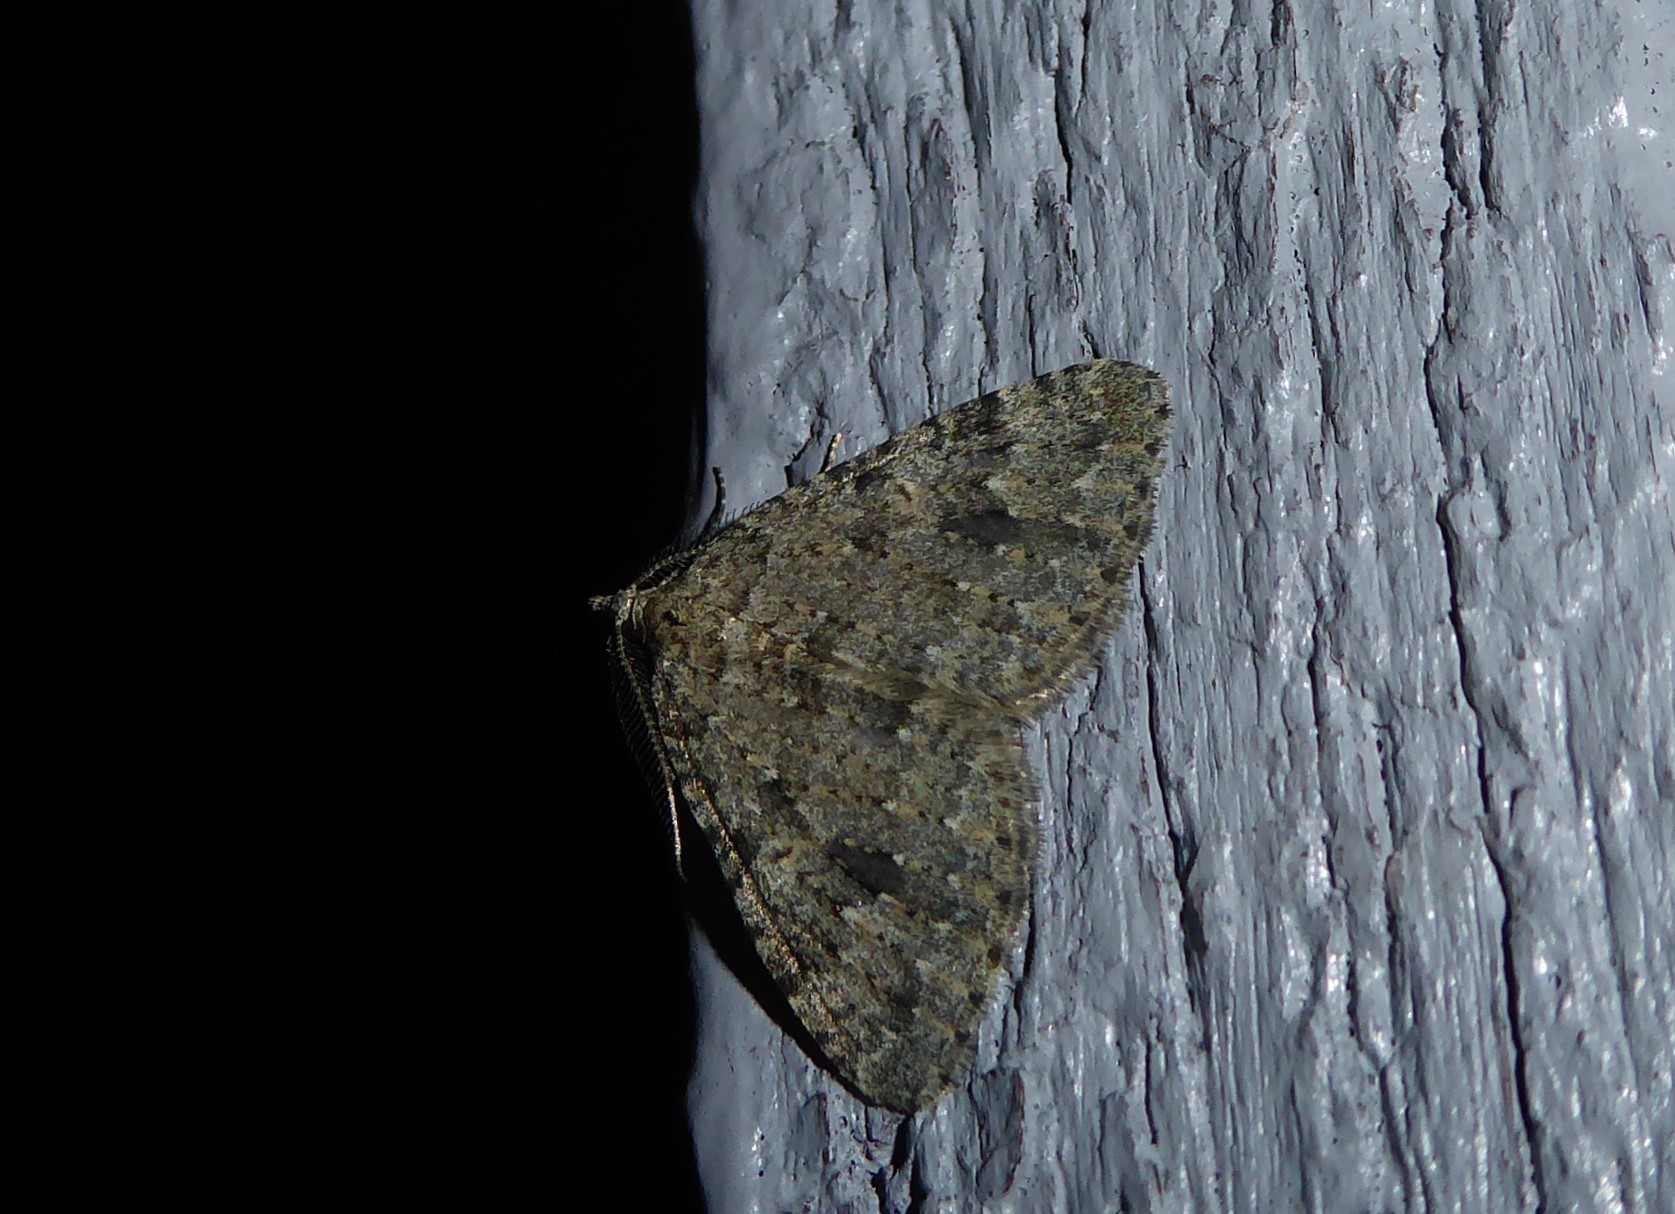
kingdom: Animalia
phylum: Arthropoda
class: Insecta
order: Lepidoptera
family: Geometridae
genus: Helastia
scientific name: Helastia corcularia
